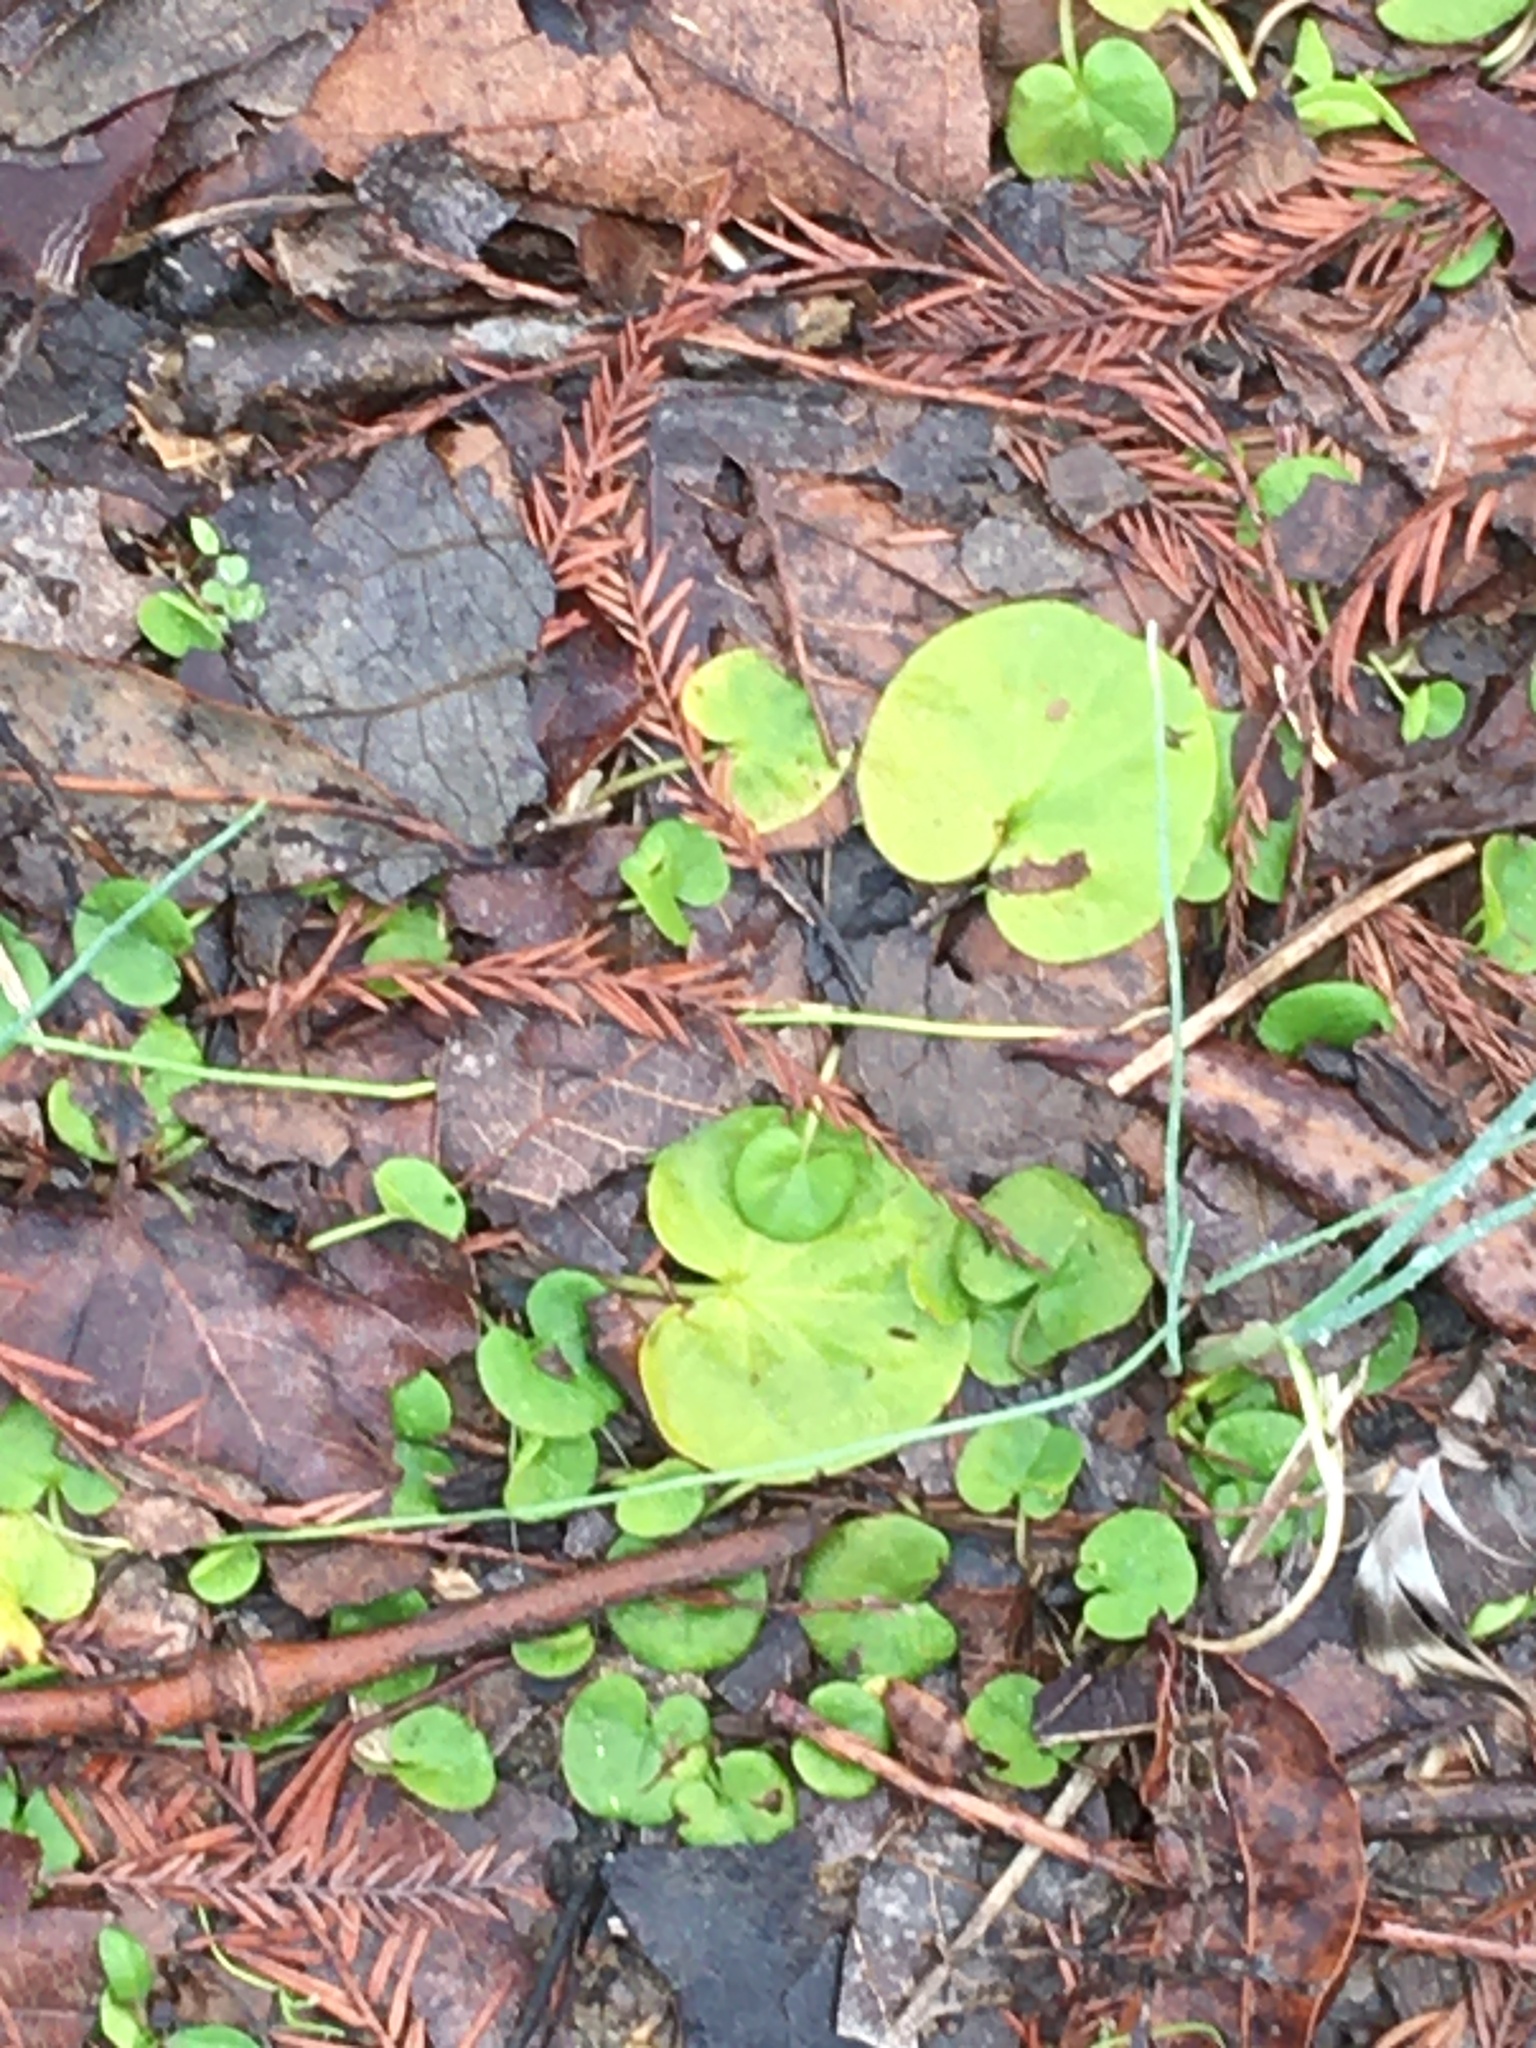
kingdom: Plantae
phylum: Tracheophyta
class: Magnoliopsida
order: Solanales
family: Convolvulaceae
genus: Dichondra
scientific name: Dichondra carolinensis
